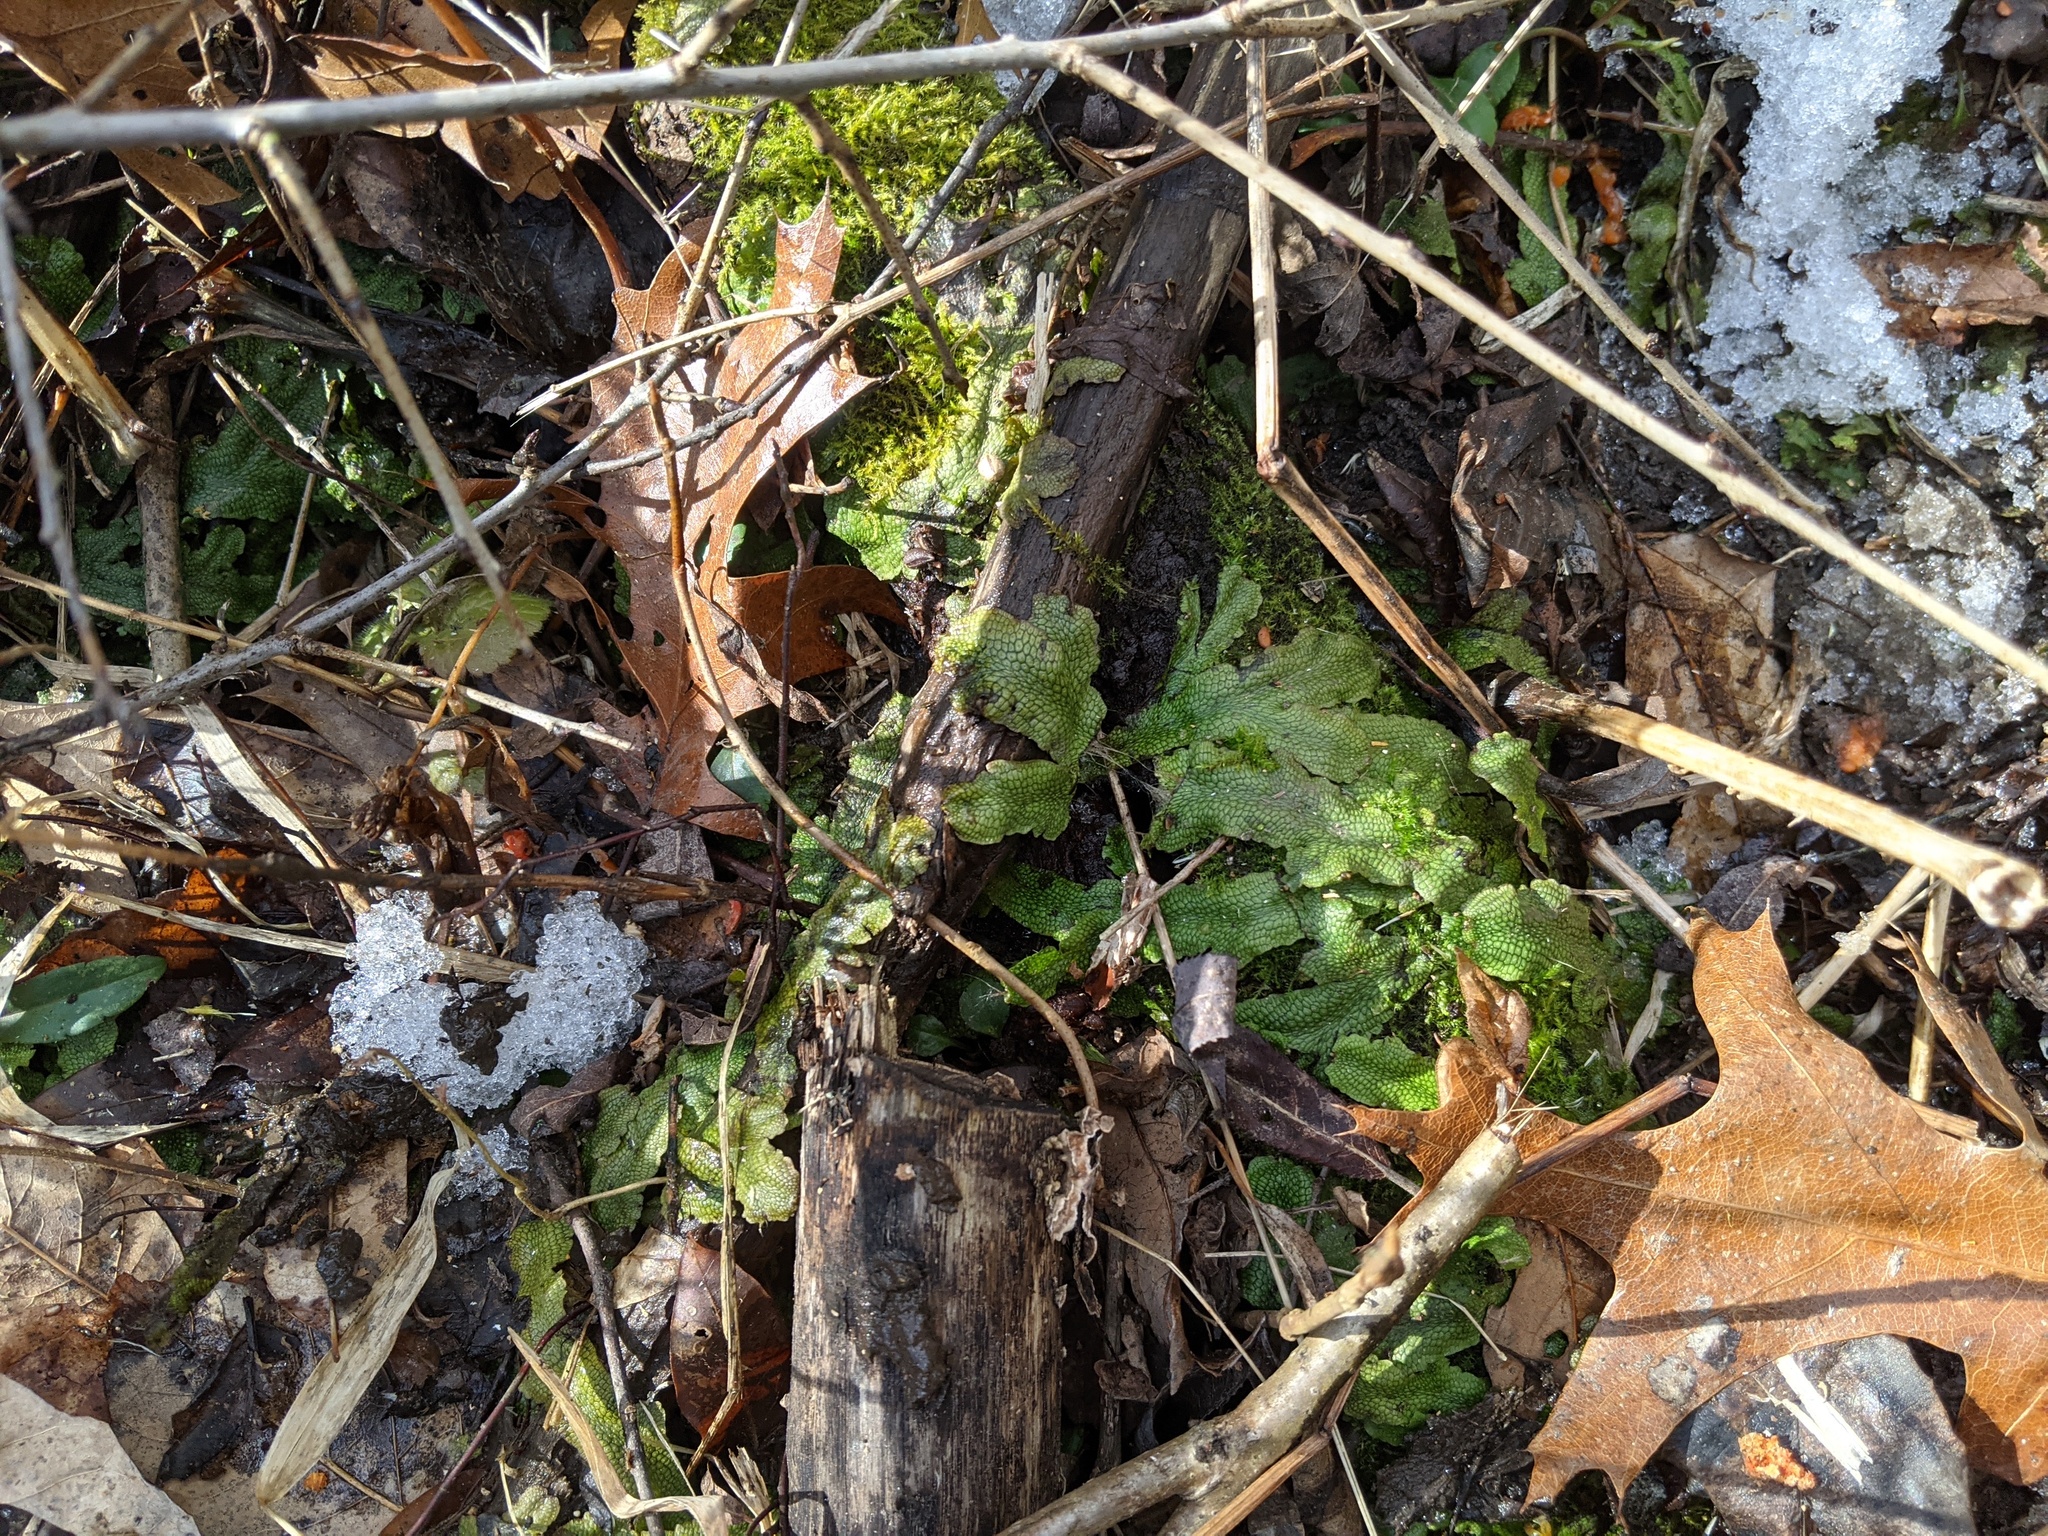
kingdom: Plantae
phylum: Marchantiophyta
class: Marchantiopsida
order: Marchantiales
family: Conocephalaceae
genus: Conocephalum
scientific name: Conocephalum salebrosum
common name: Cat-tongue liverwort
